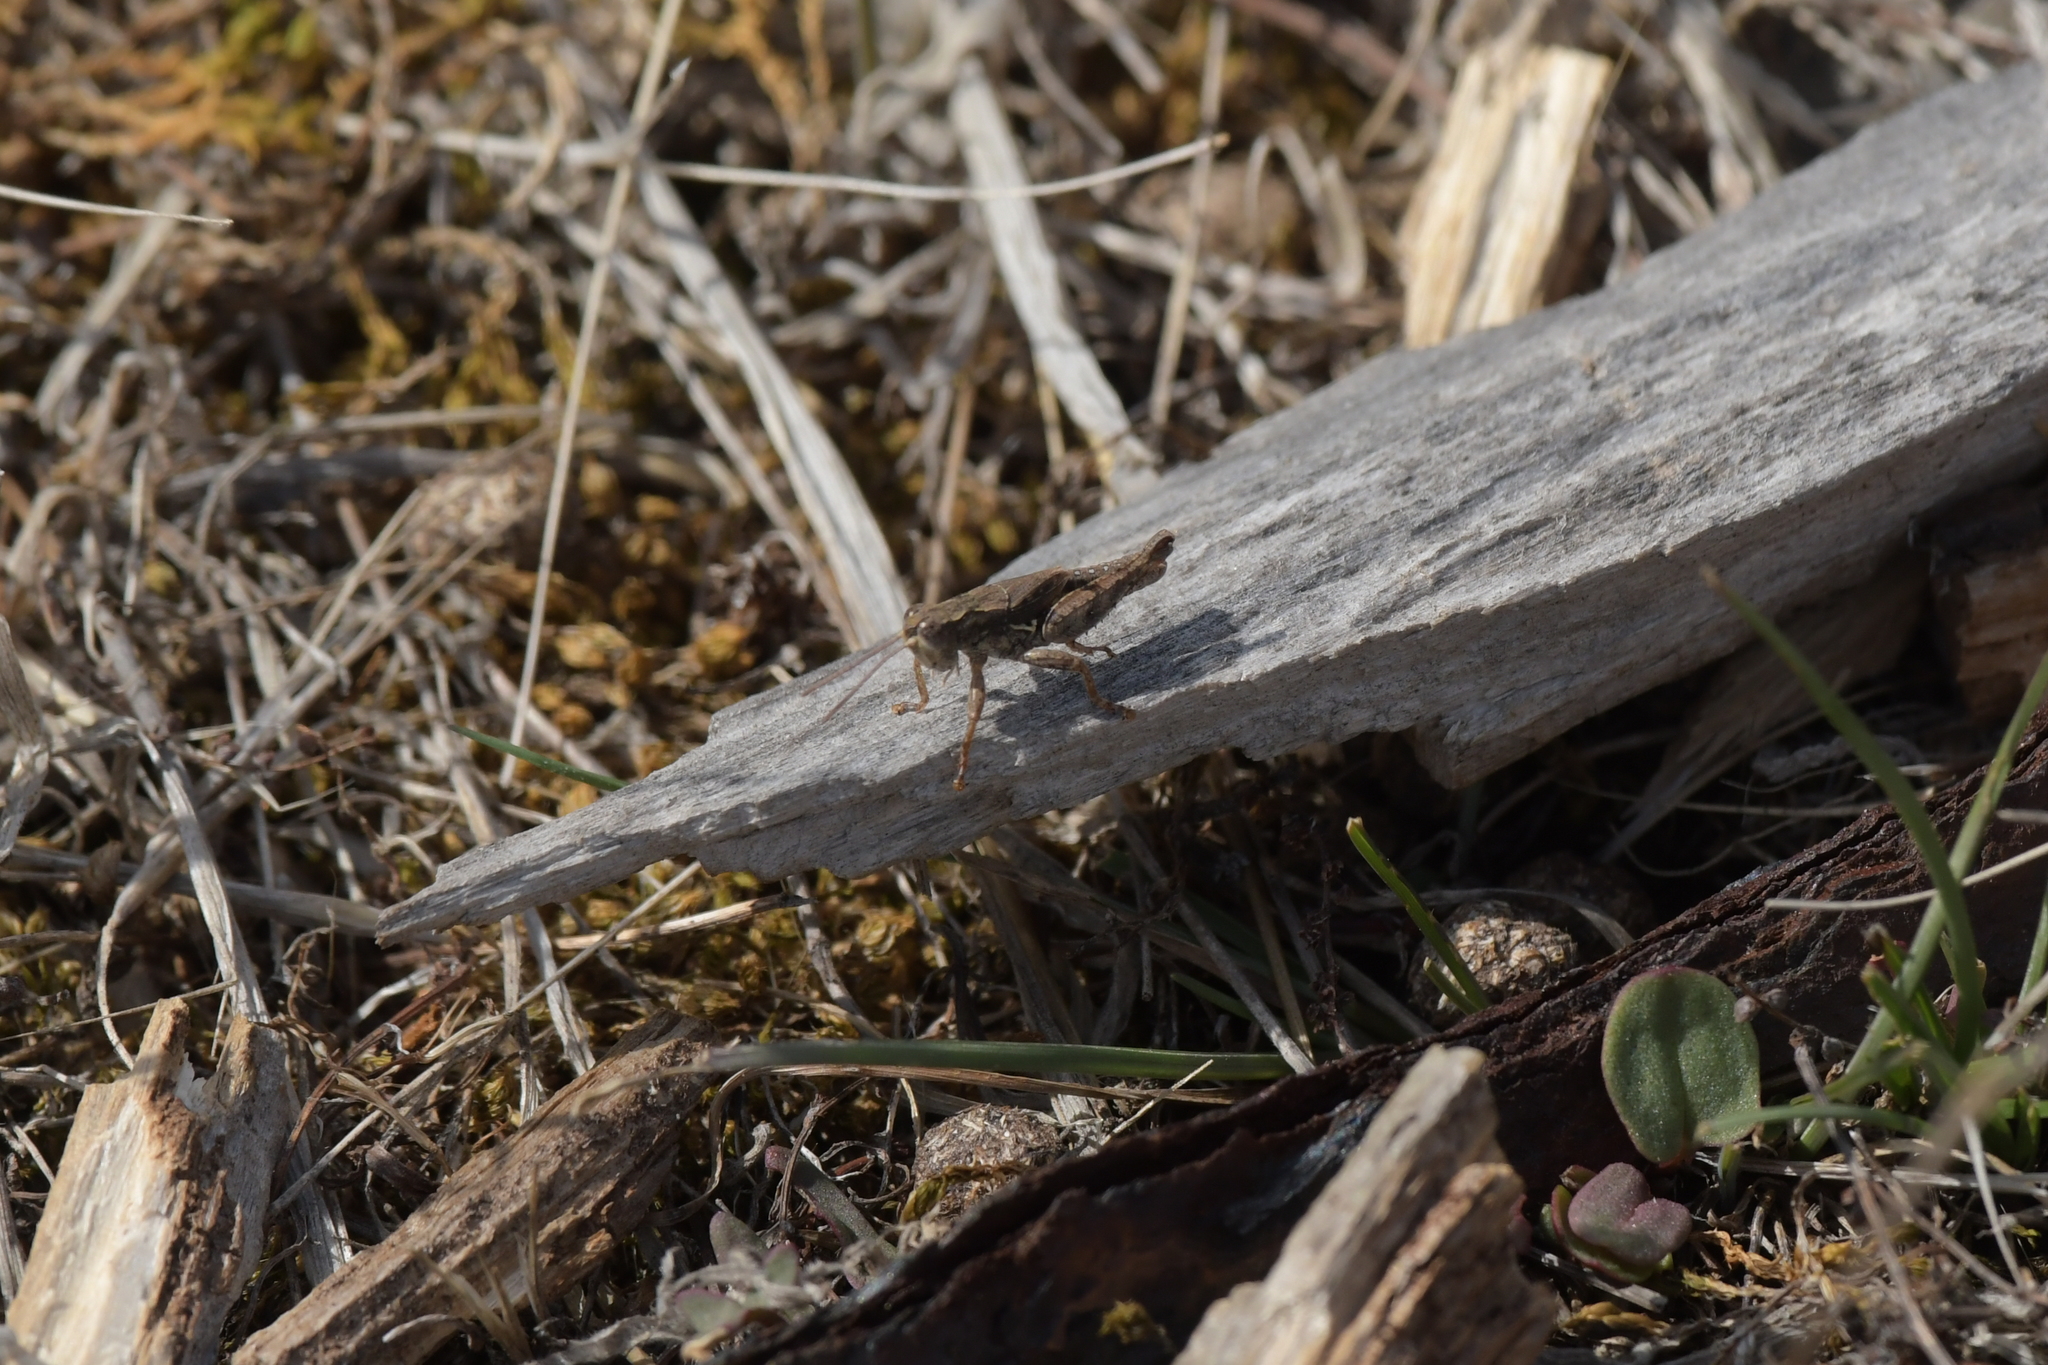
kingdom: Animalia
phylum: Arthropoda
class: Insecta
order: Orthoptera
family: Acrididae
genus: Phaulacridium
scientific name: Phaulacridium marginale
